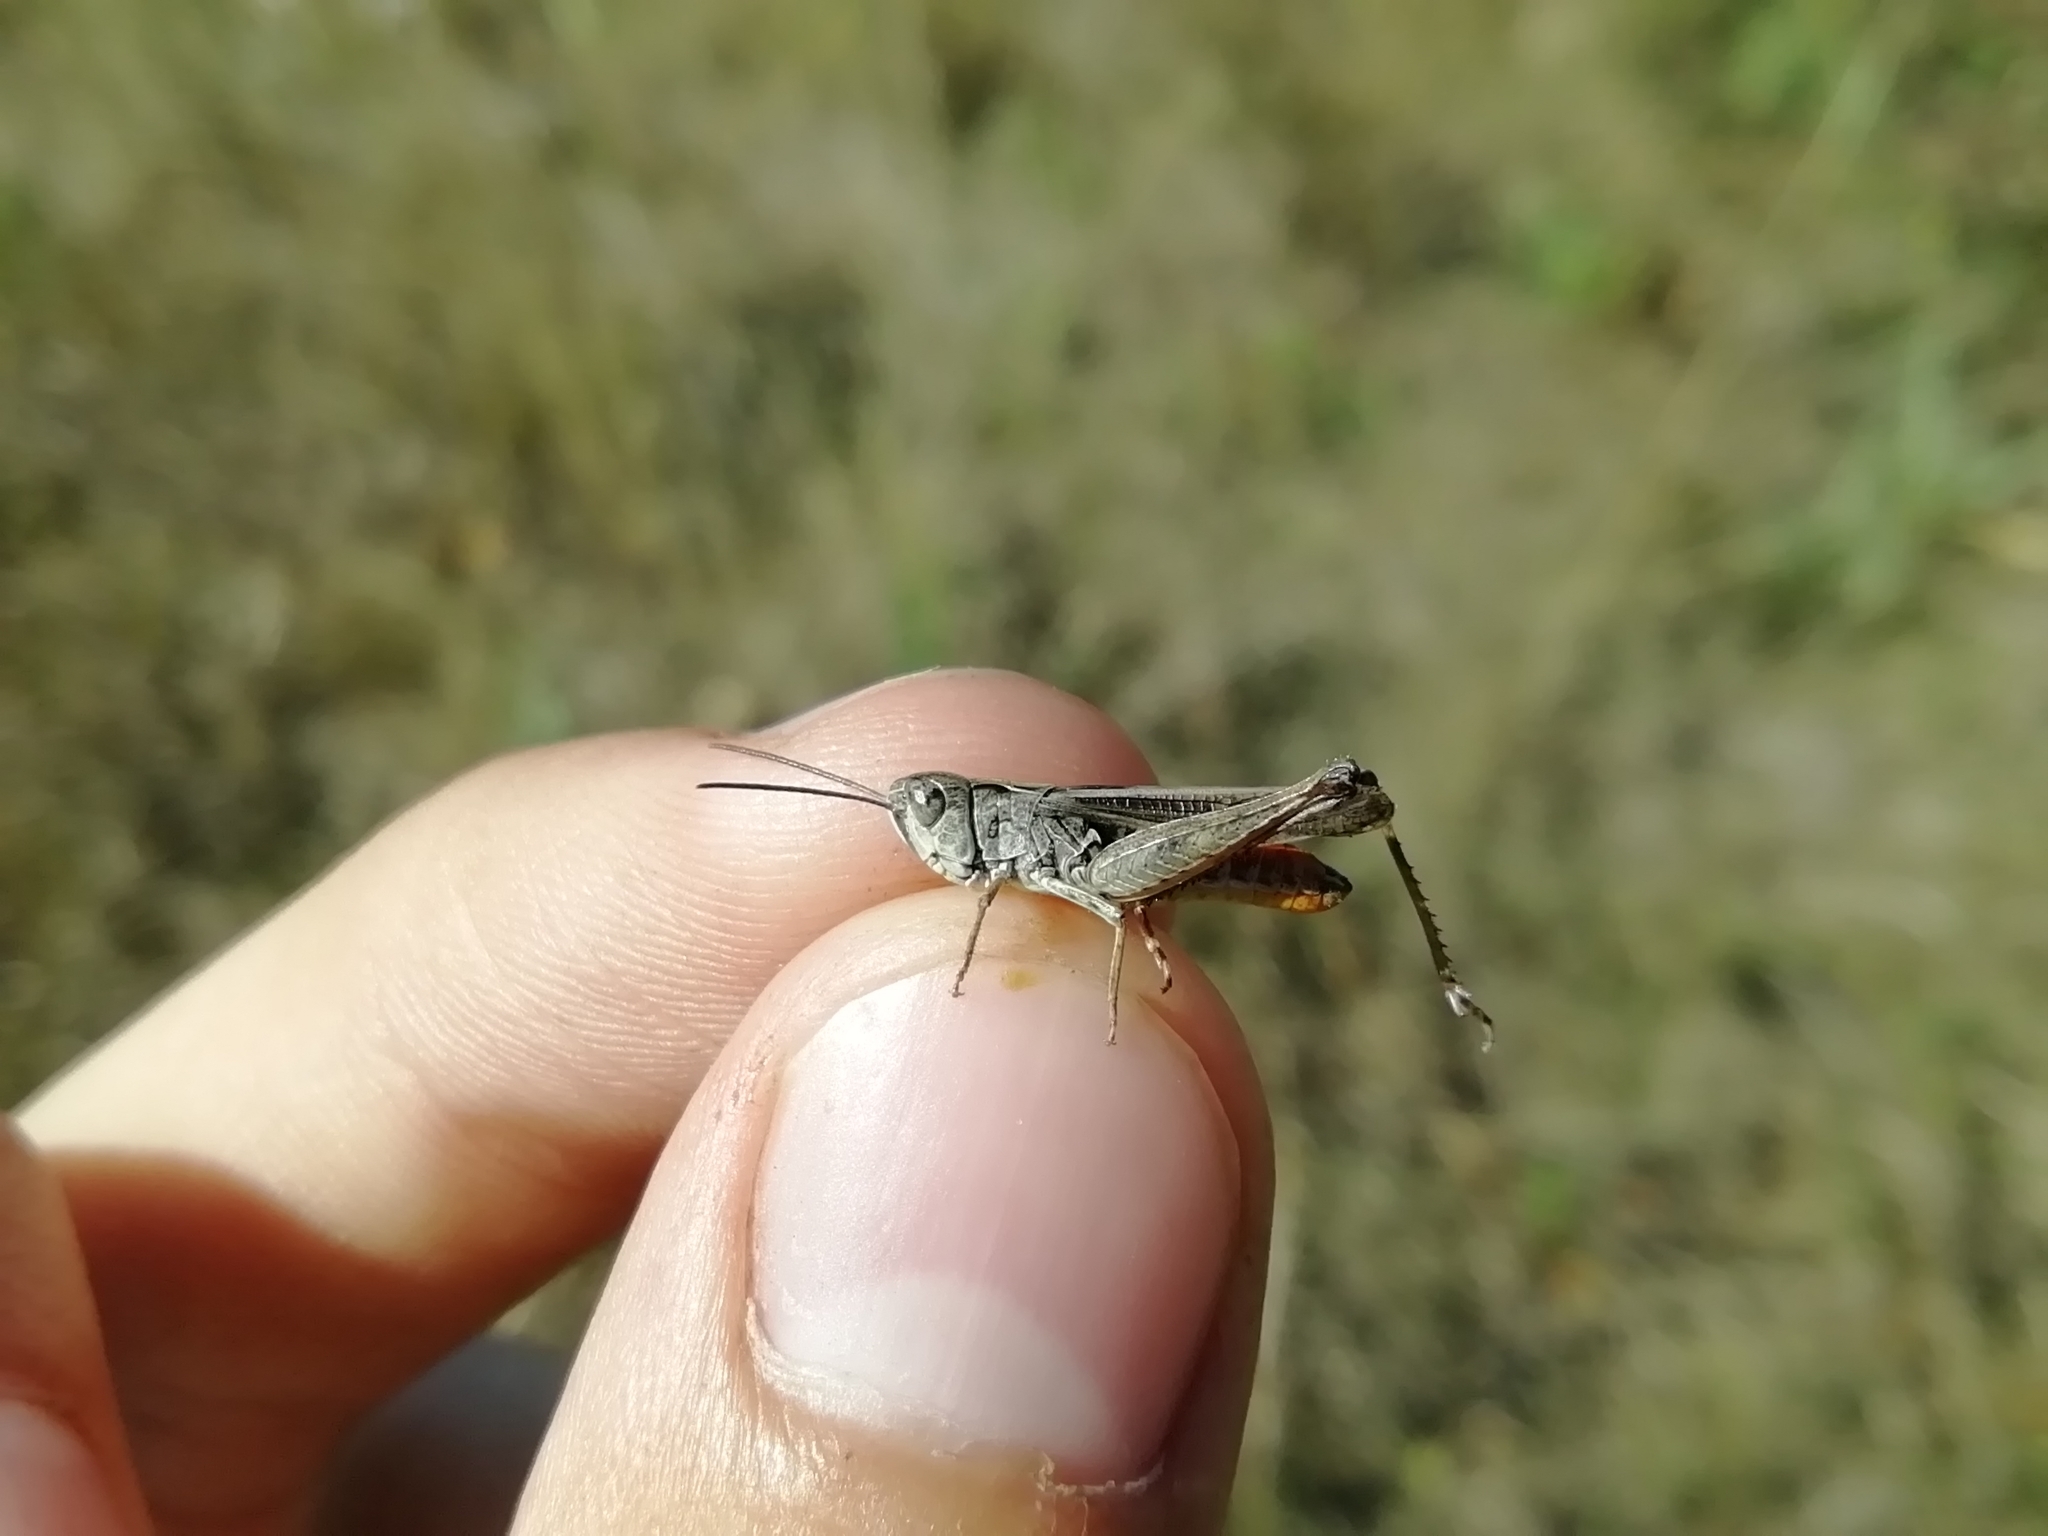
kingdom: Animalia
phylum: Arthropoda
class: Insecta
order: Orthoptera
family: Acrididae
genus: Omocestus
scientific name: Omocestus haemorrhoidalis
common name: Orange-tipped grasshopper
